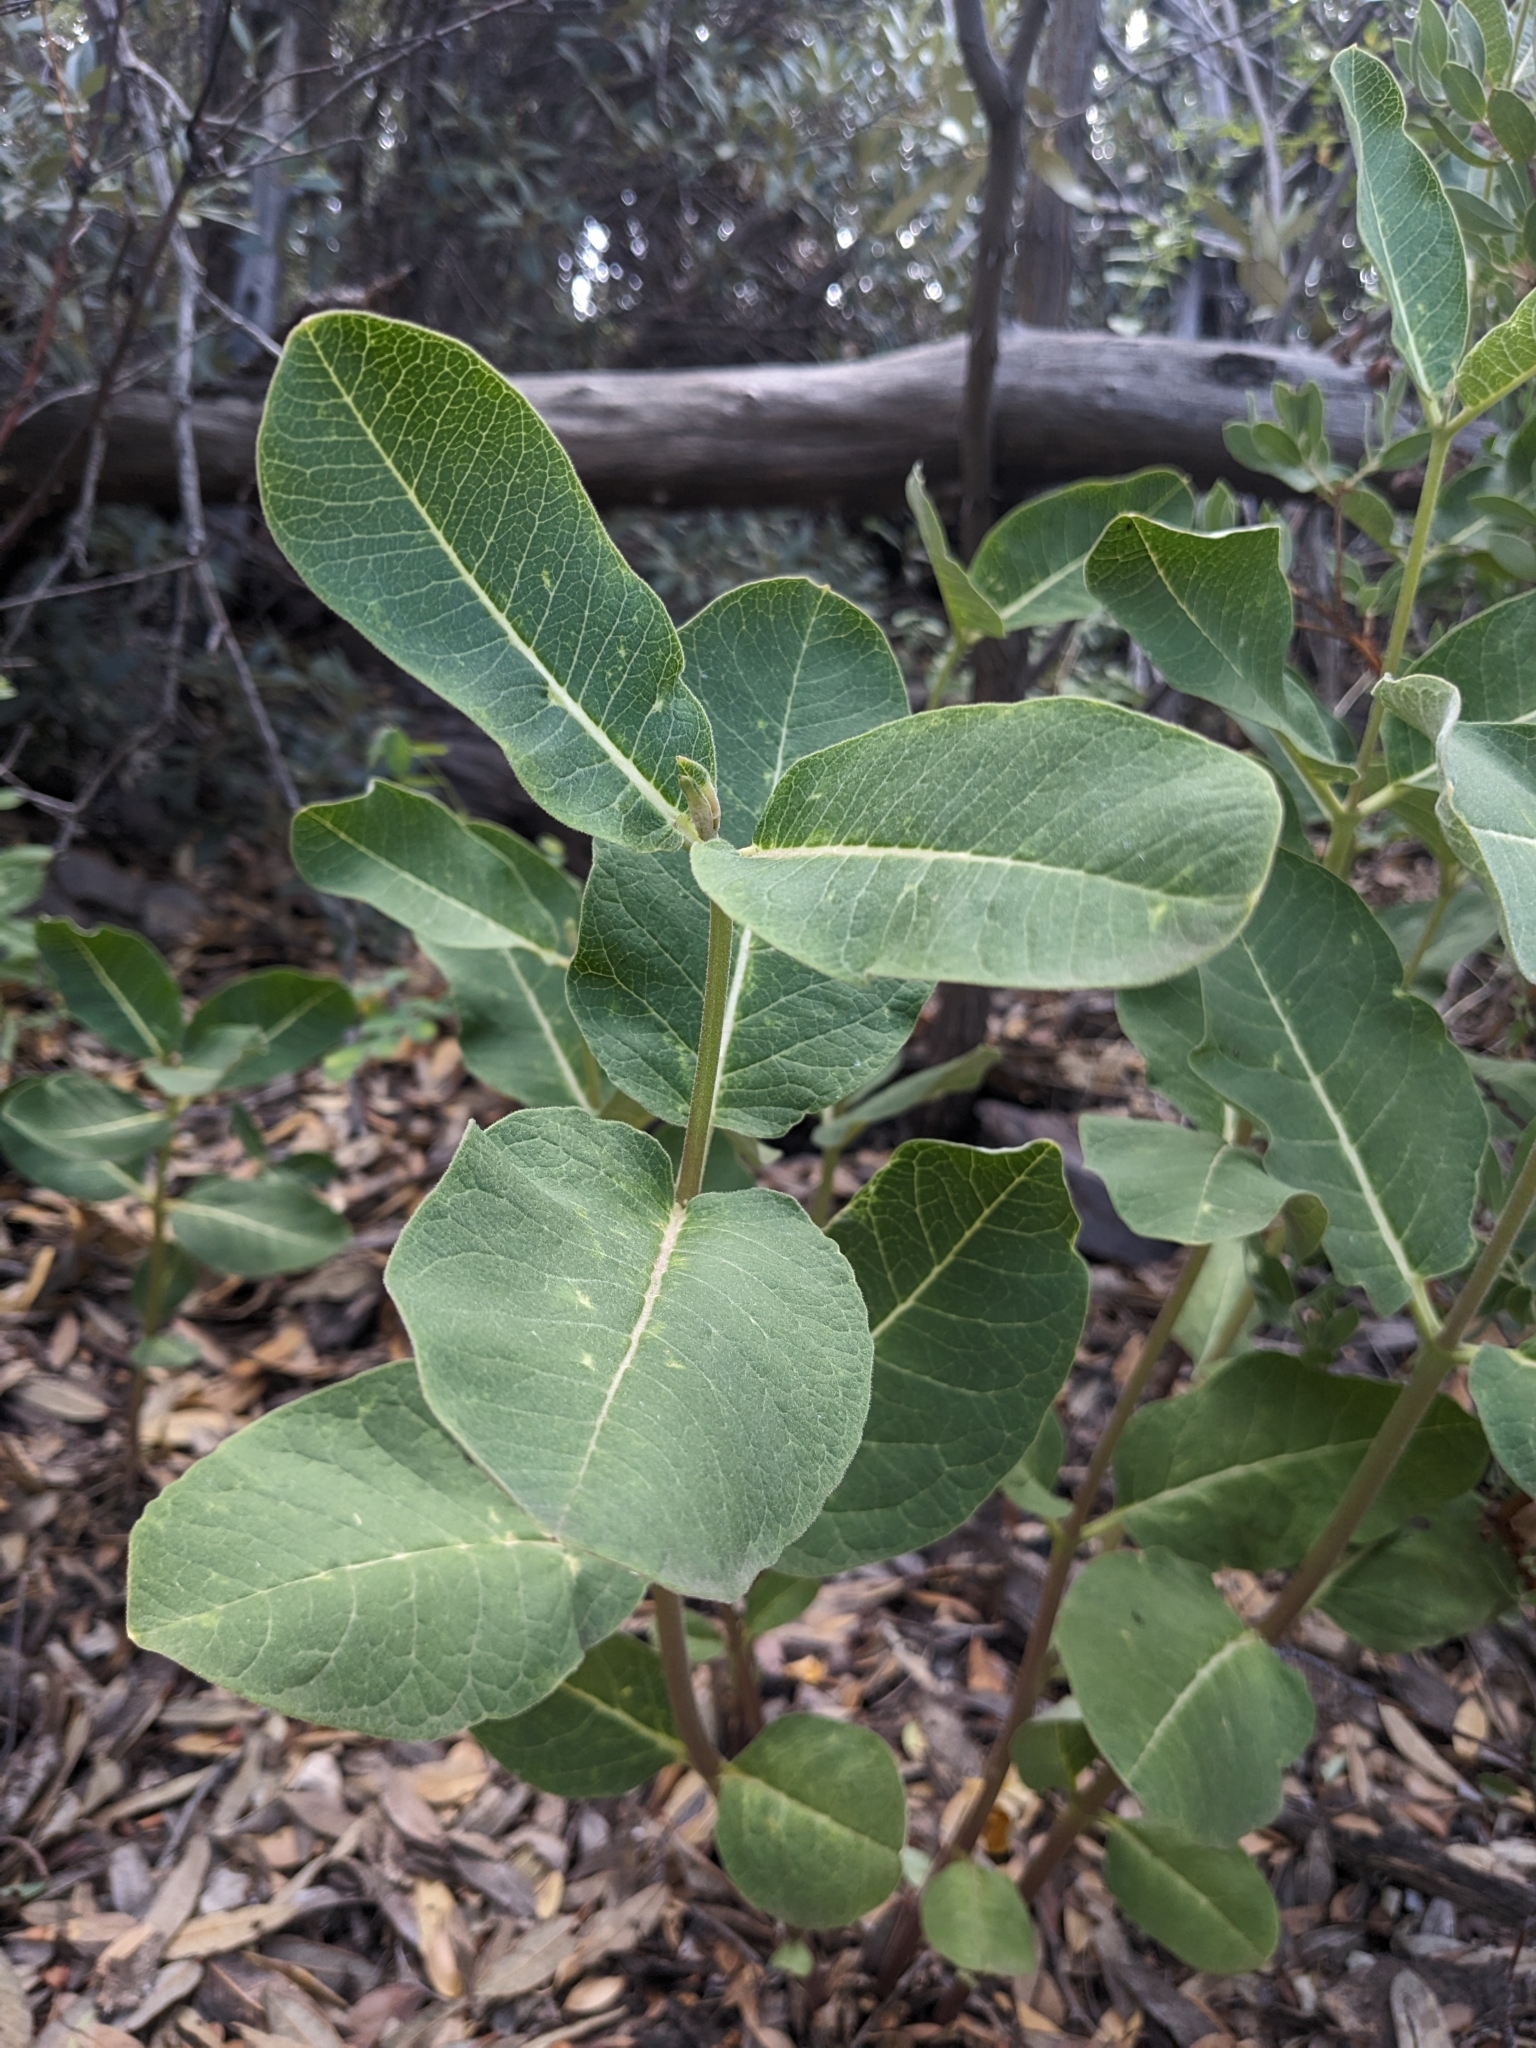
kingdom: Plantae
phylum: Tracheophyta
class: Magnoliopsida
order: Gentianales
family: Apocynaceae
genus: Asclepias
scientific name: Asclepias hypoleuca
